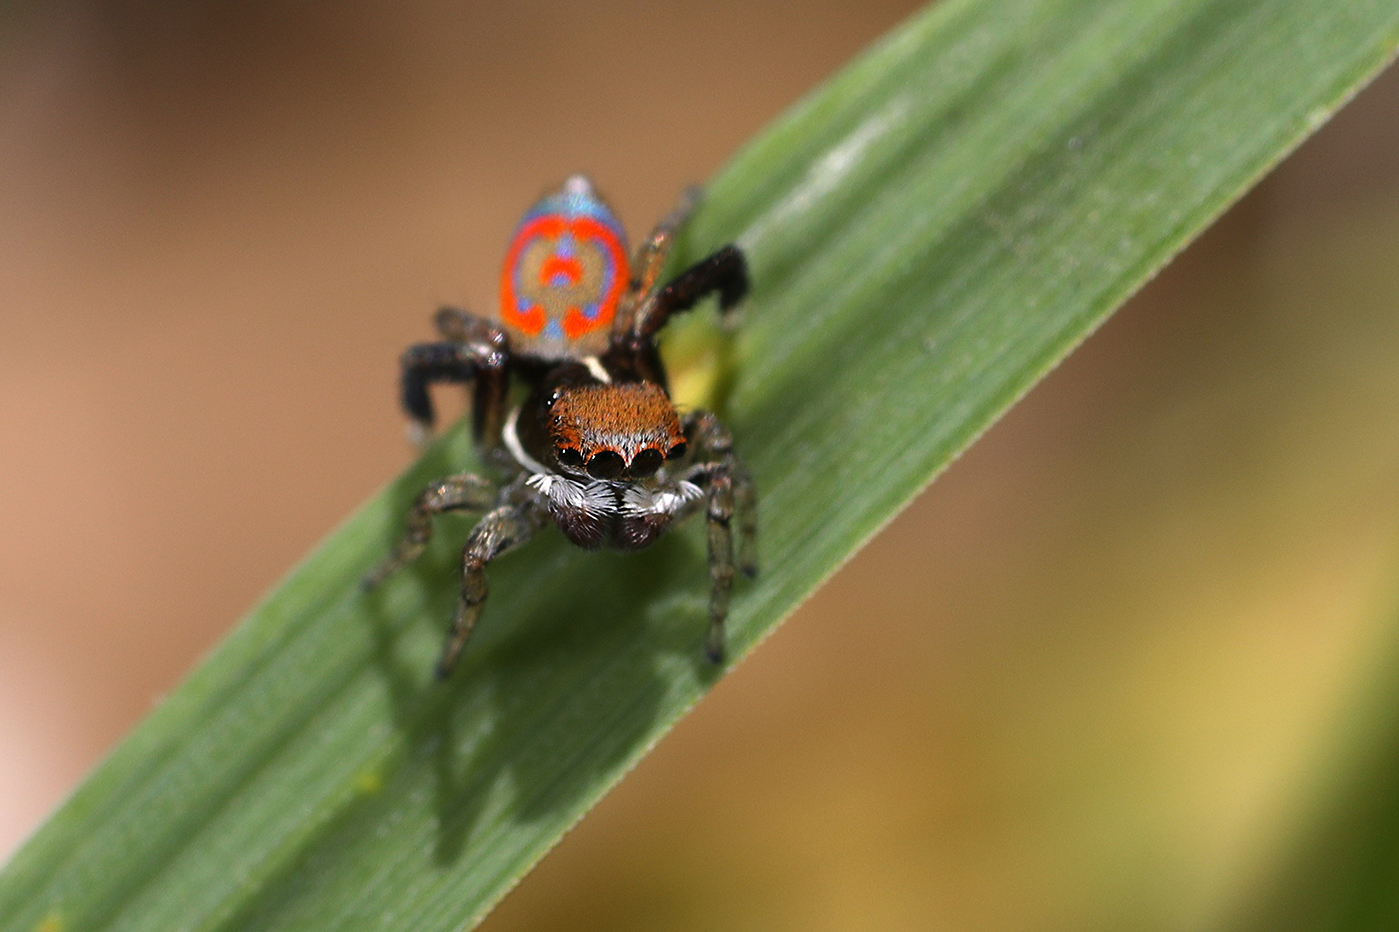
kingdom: Animalia
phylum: Arthropoda
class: Arachnida
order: Araneae
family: Salticidae
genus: Maratus
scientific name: Maratus pavonis
